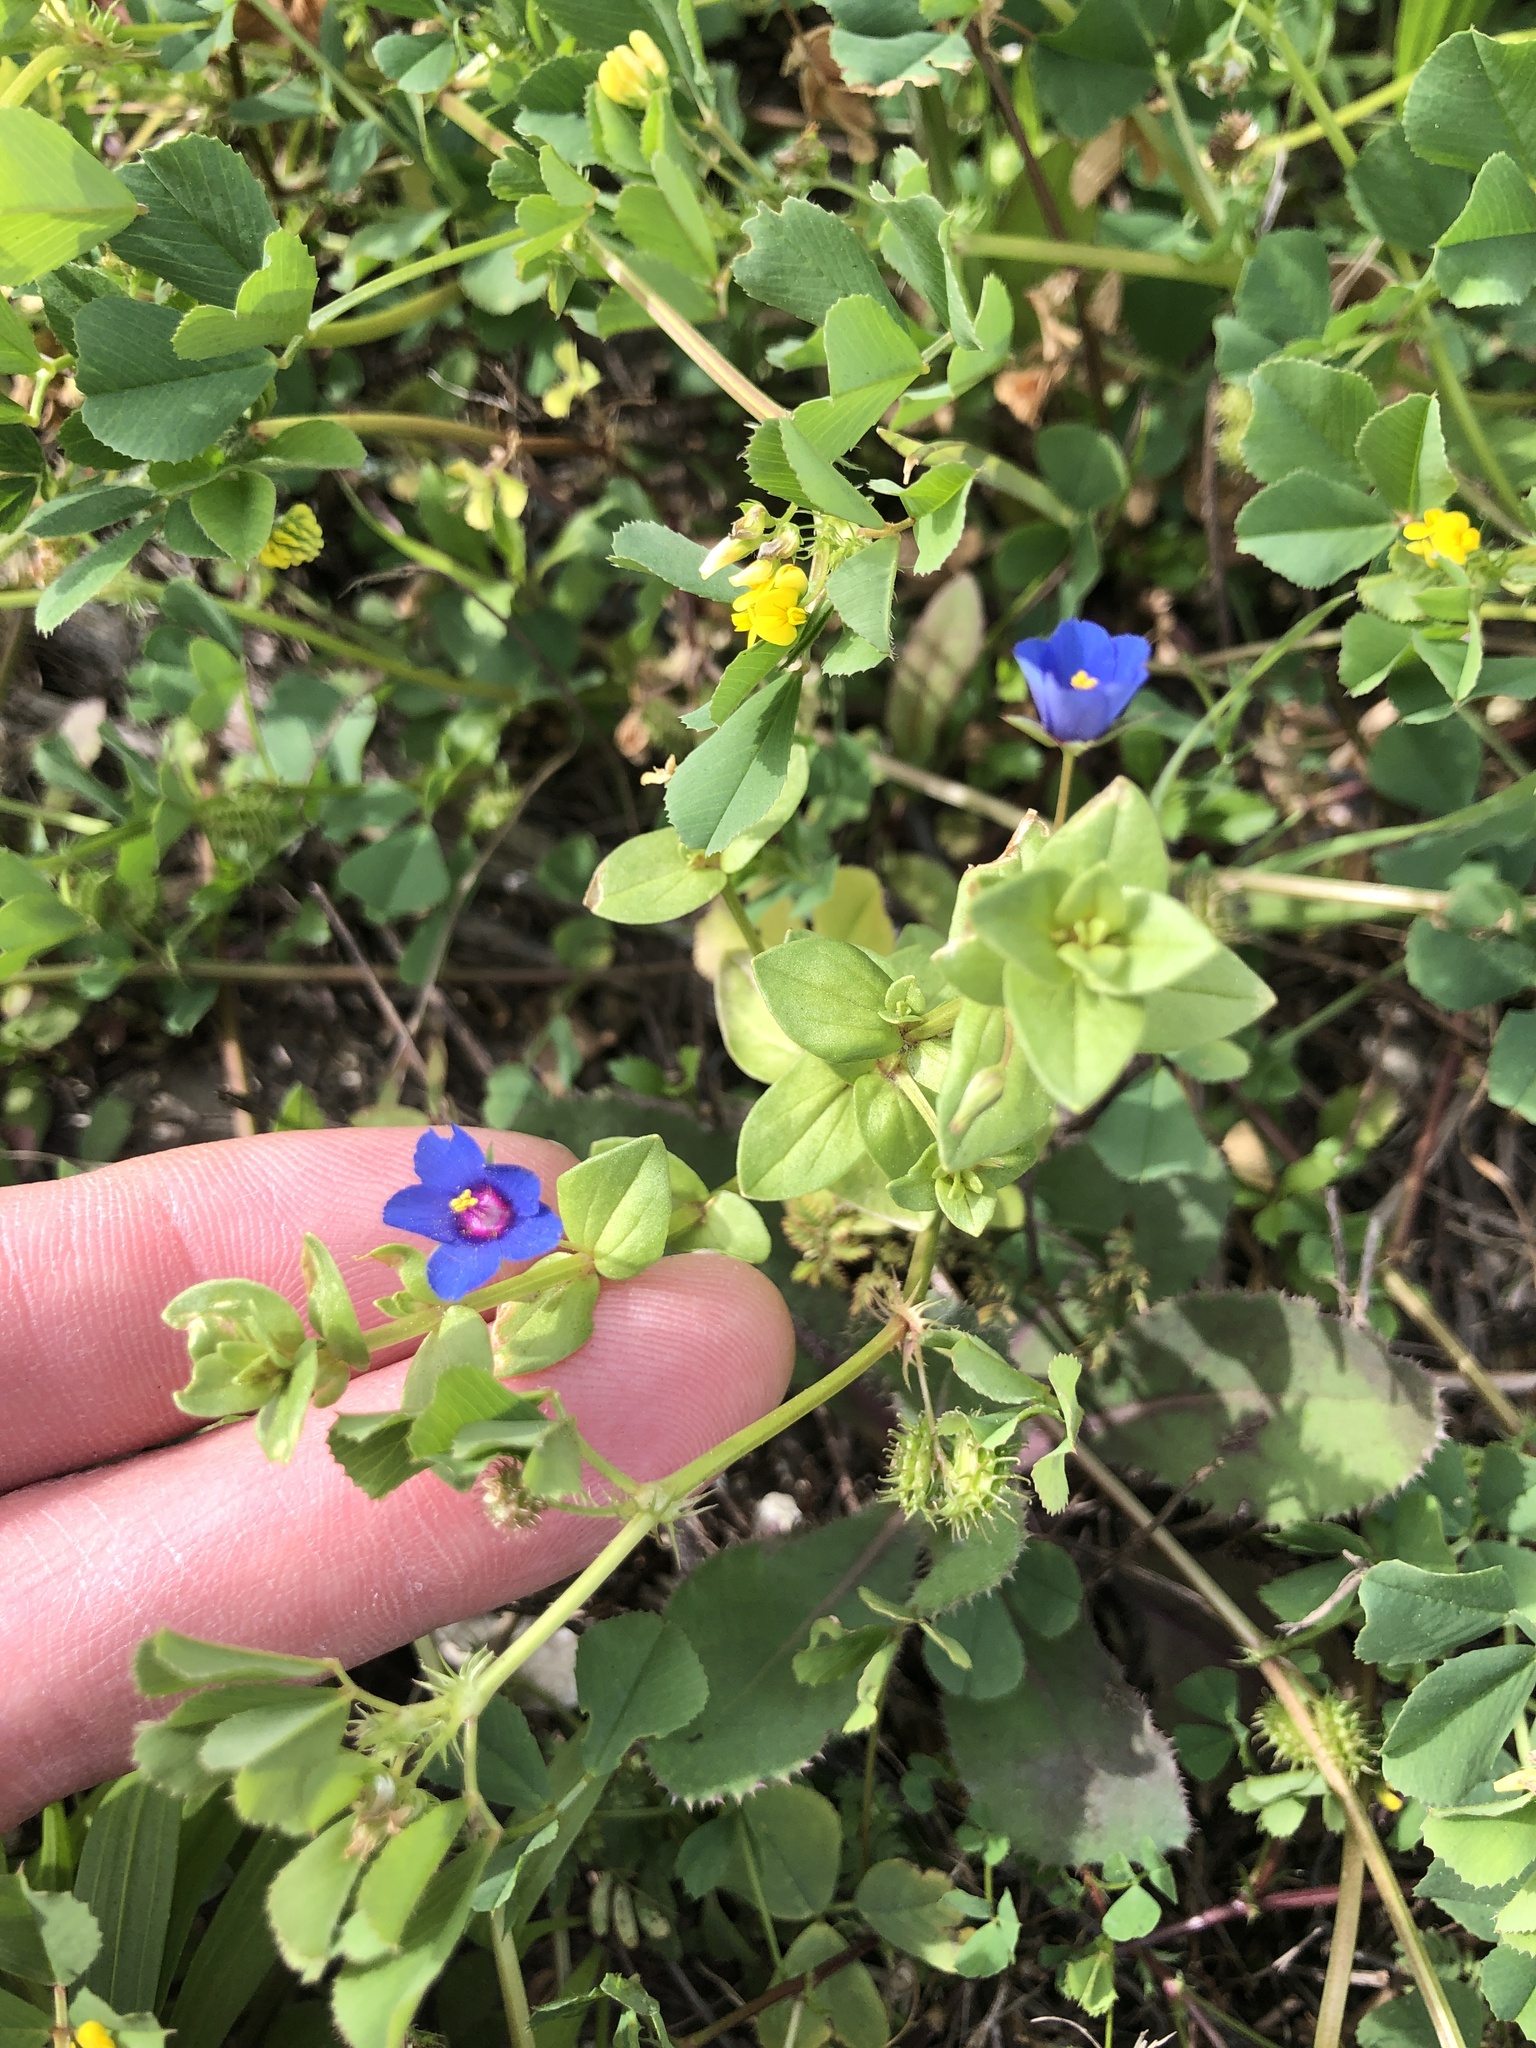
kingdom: Plantae
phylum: Tracheophyta
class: Magnoliopsida
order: Ericales
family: Primulaceae
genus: Lysimachia
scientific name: Lysimachia foemina
